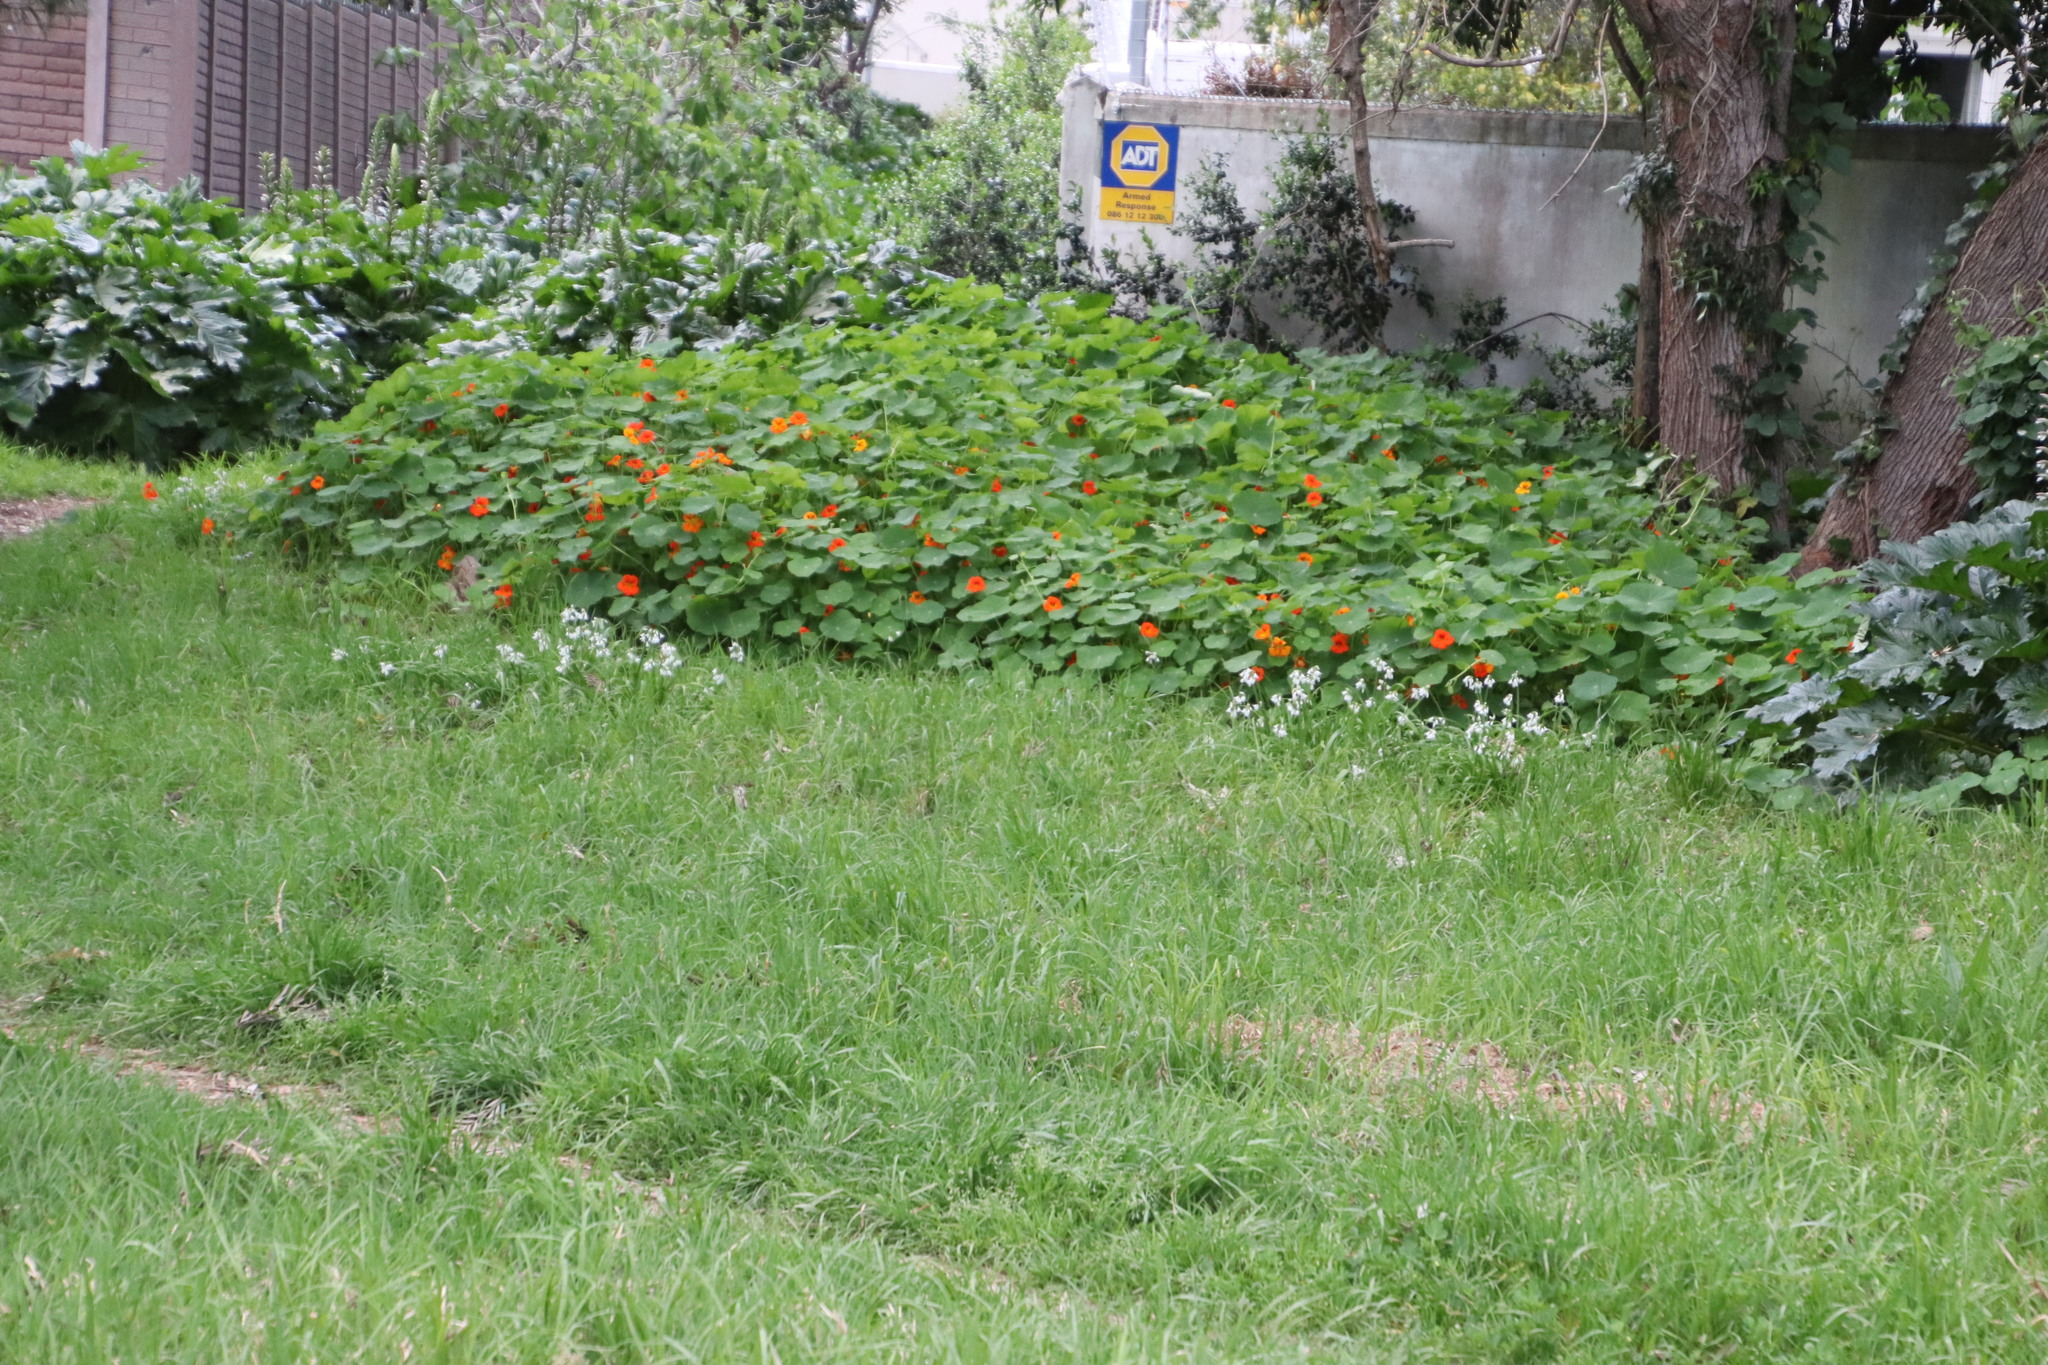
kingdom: Plantae
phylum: Tracheophyta
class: Liliopsida
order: Asparagales
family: Amaryllidaceae
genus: Allium
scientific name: Allium triquetrum
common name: Three-cornered garlic
